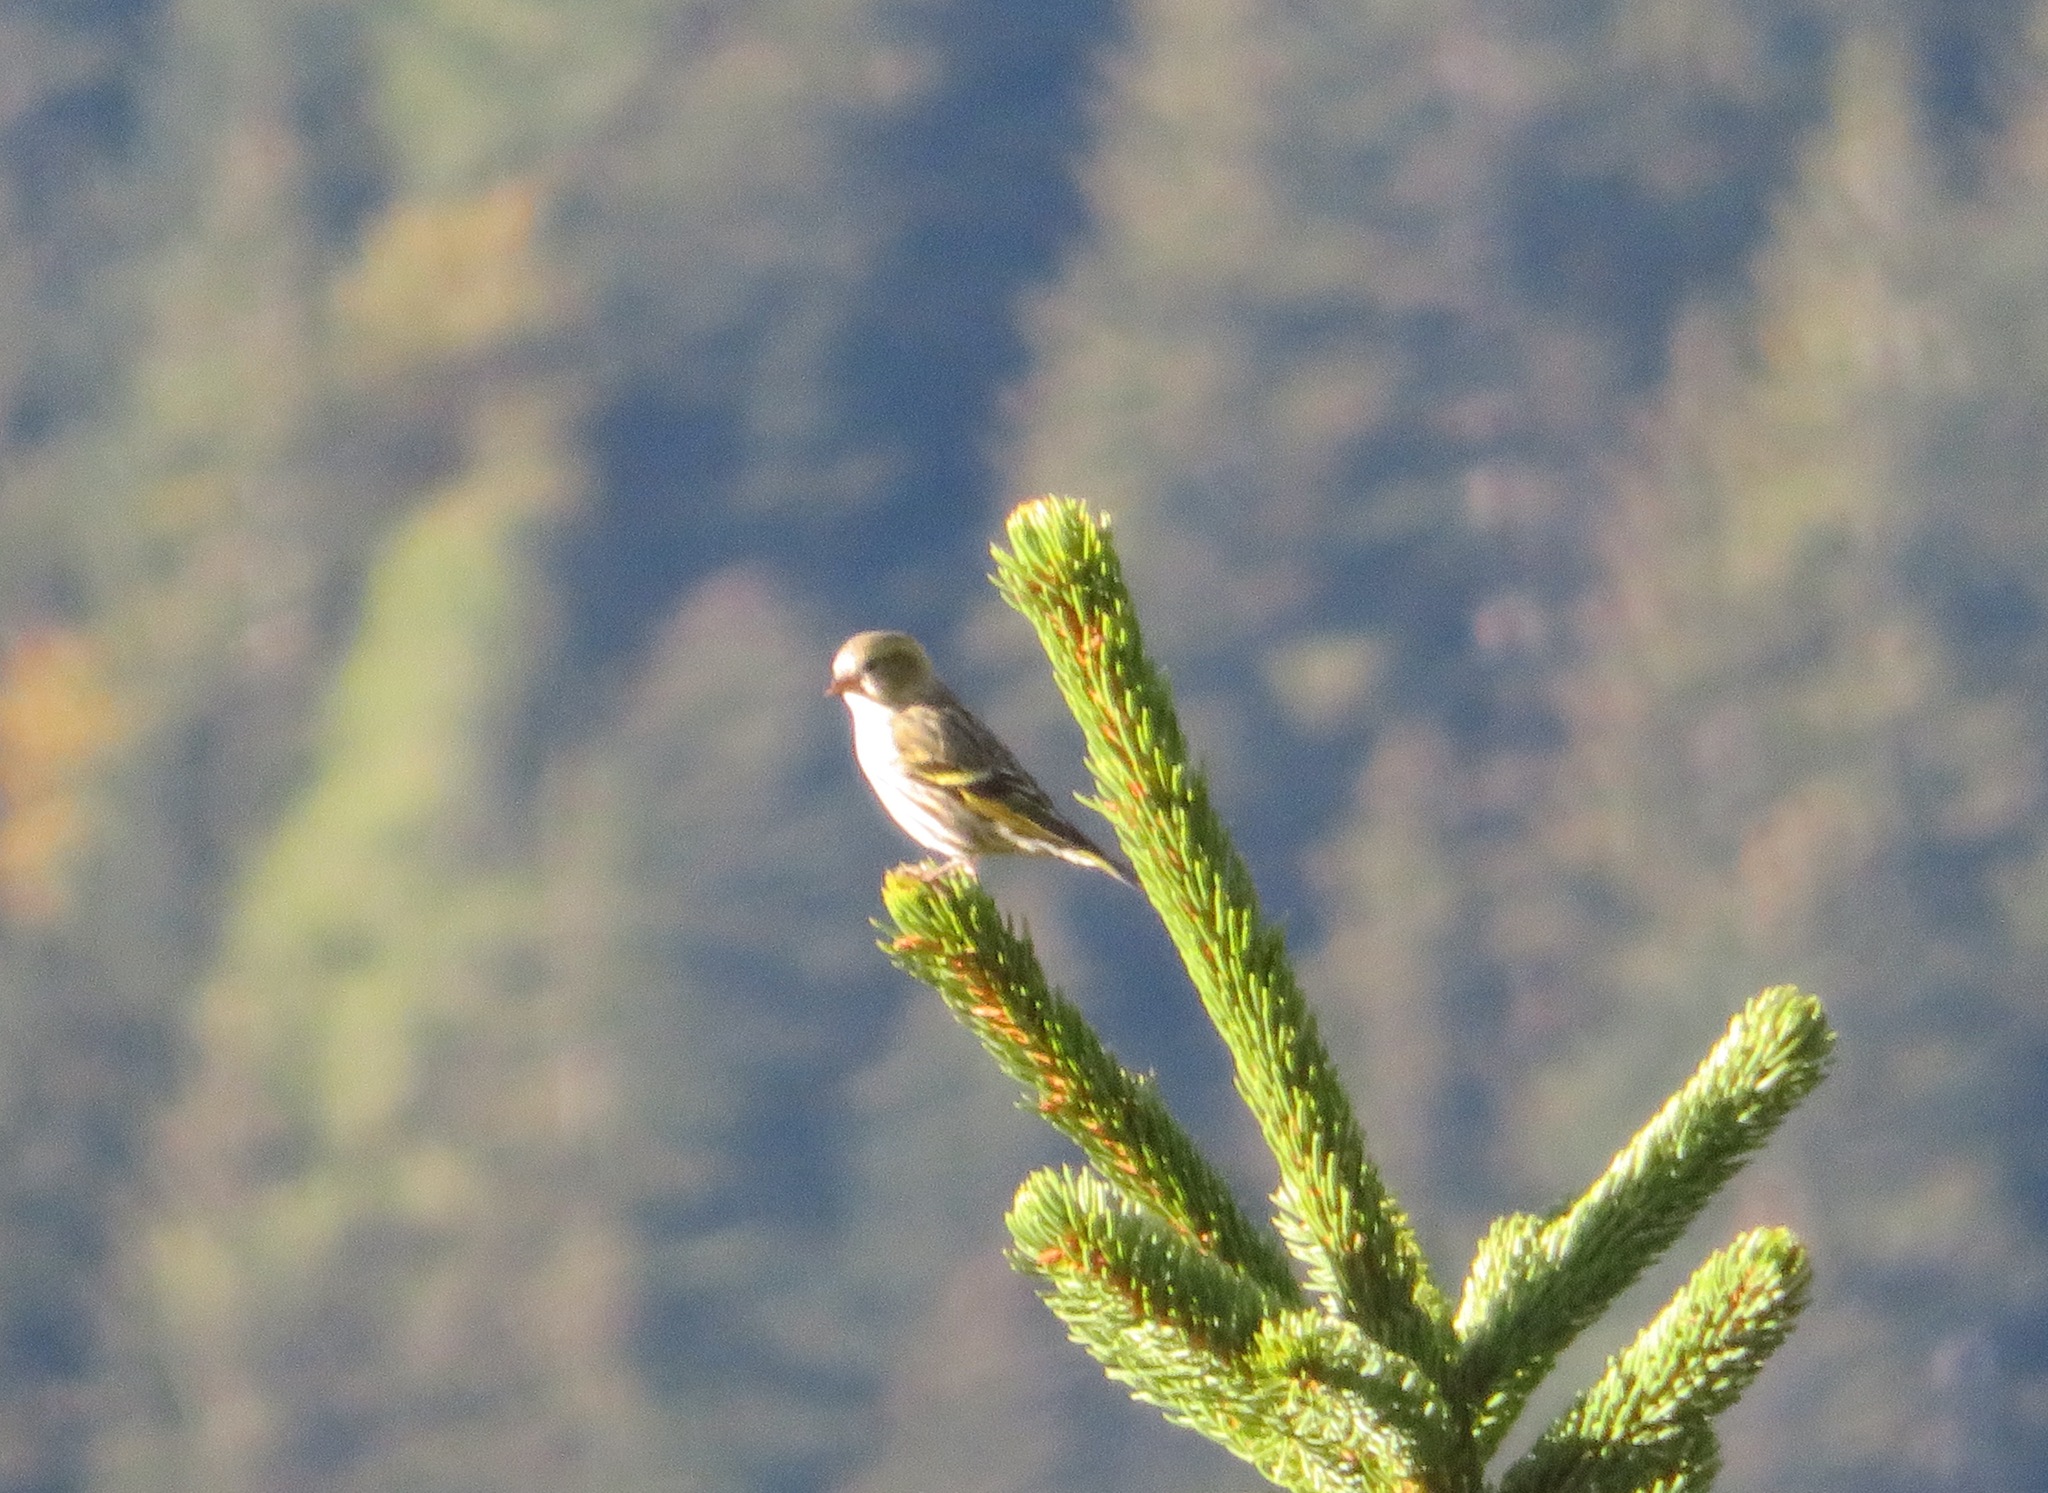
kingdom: Animalia
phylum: Chordata
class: Aves
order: Passeriformes
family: Fringillidae
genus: Spinus
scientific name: Spinus spinus
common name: Eurasian siskin
